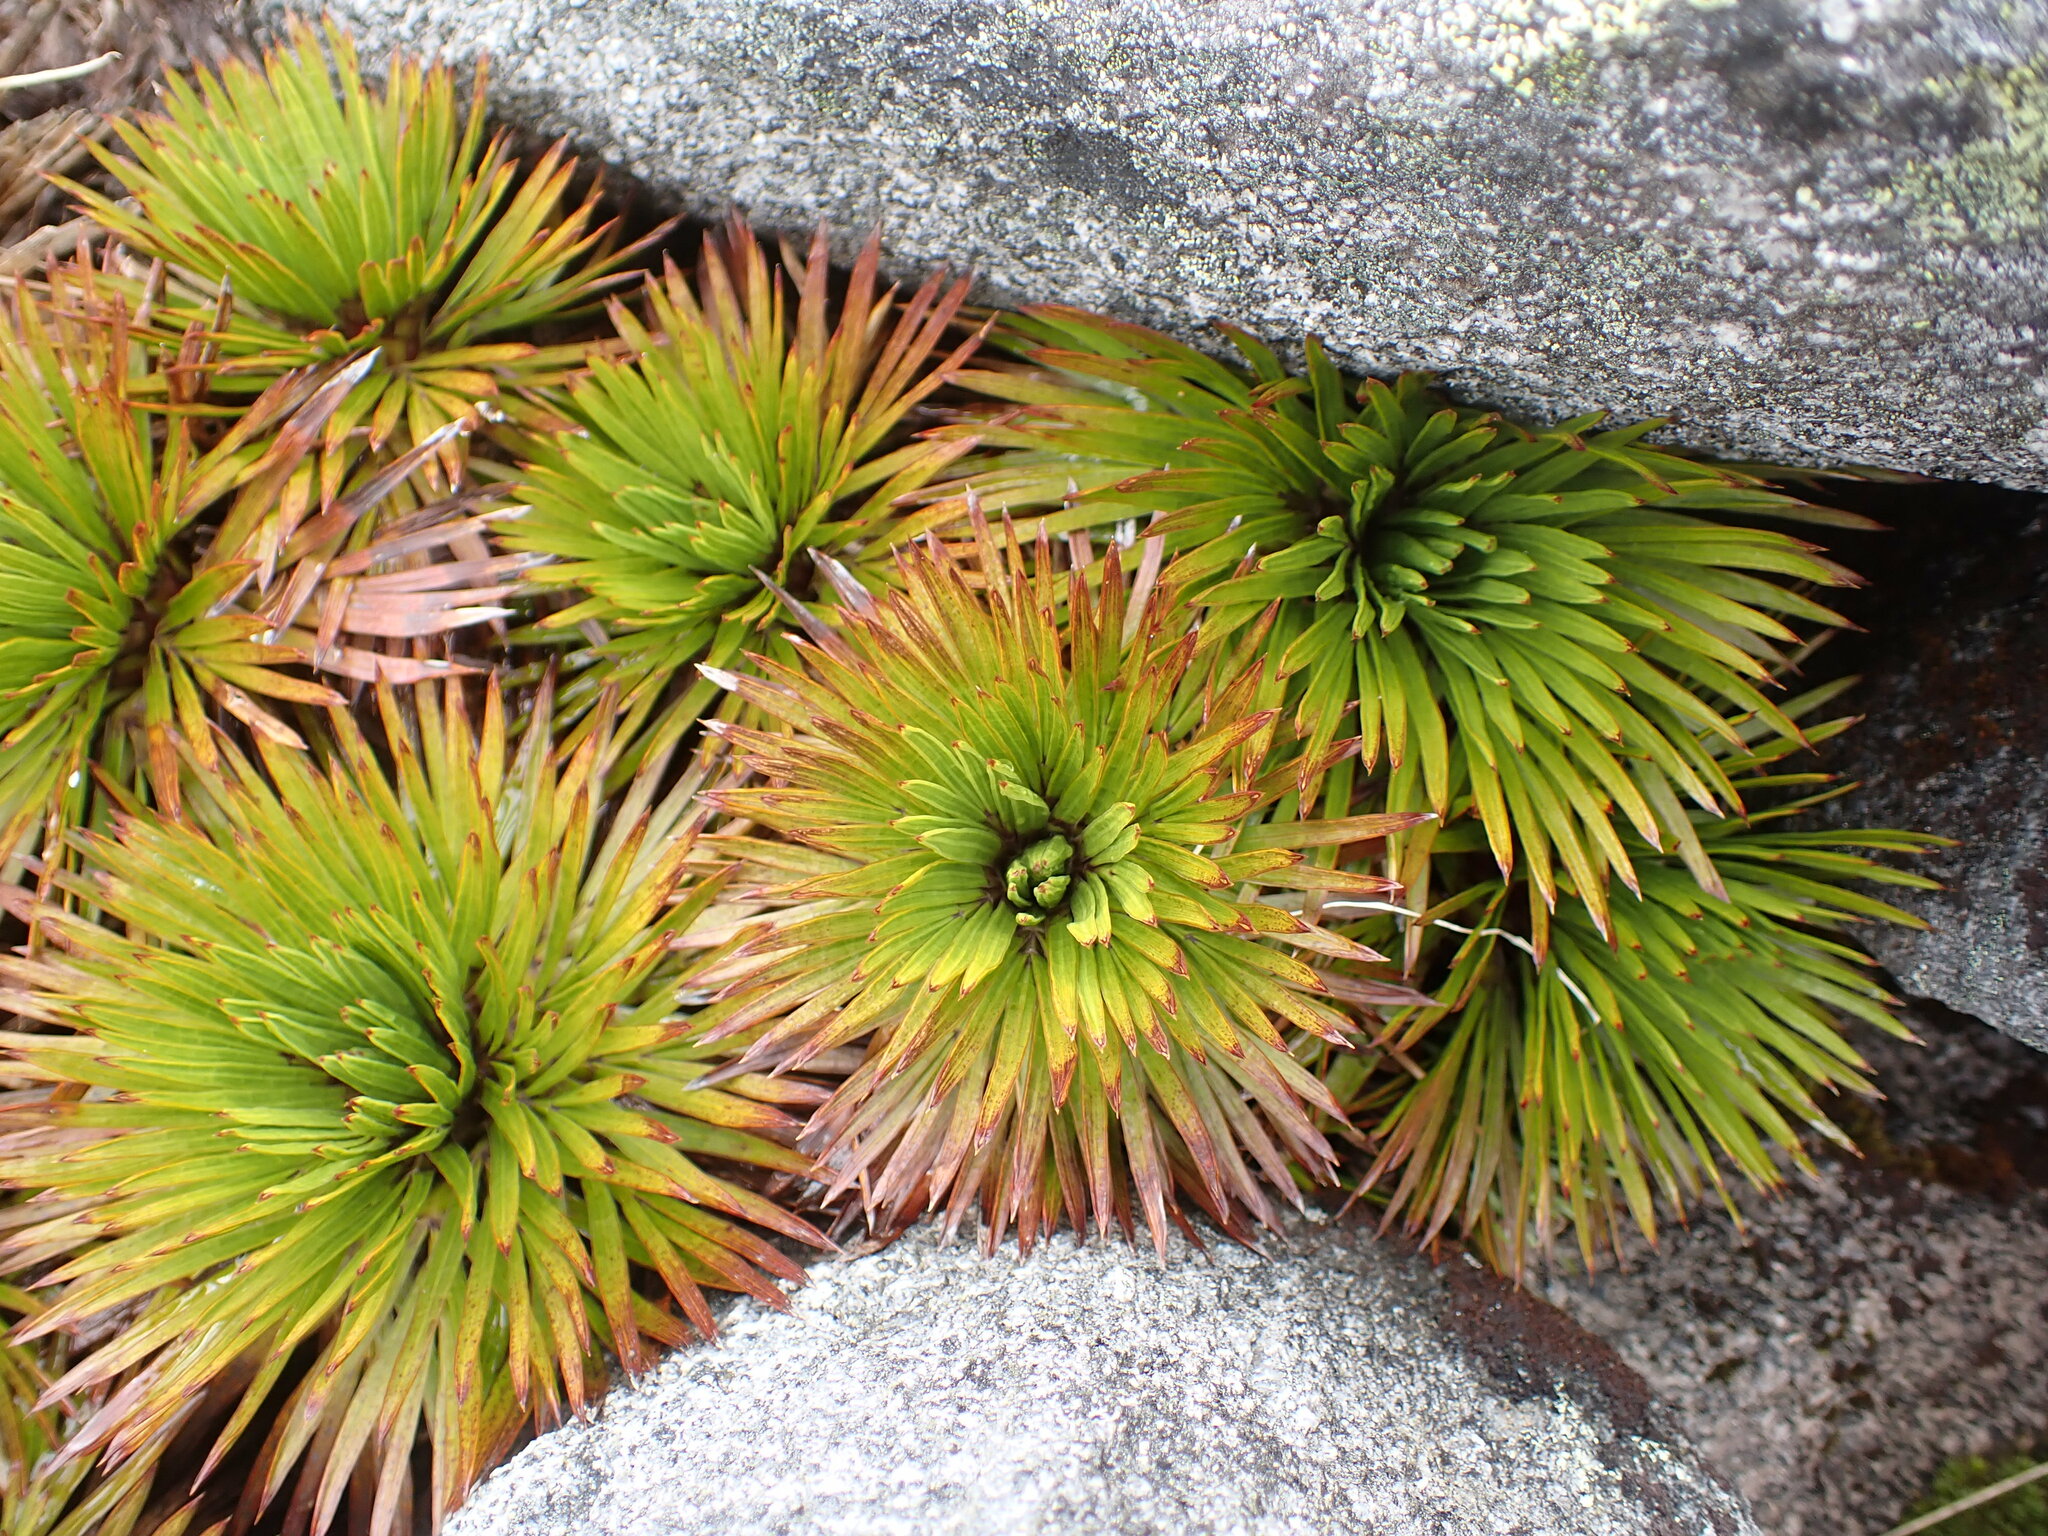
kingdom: Plantae
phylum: Tracheophyta
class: Magnoliopsida
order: Apiales
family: Apiaceae
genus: Aciphylla
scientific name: Aciphylla congesta
